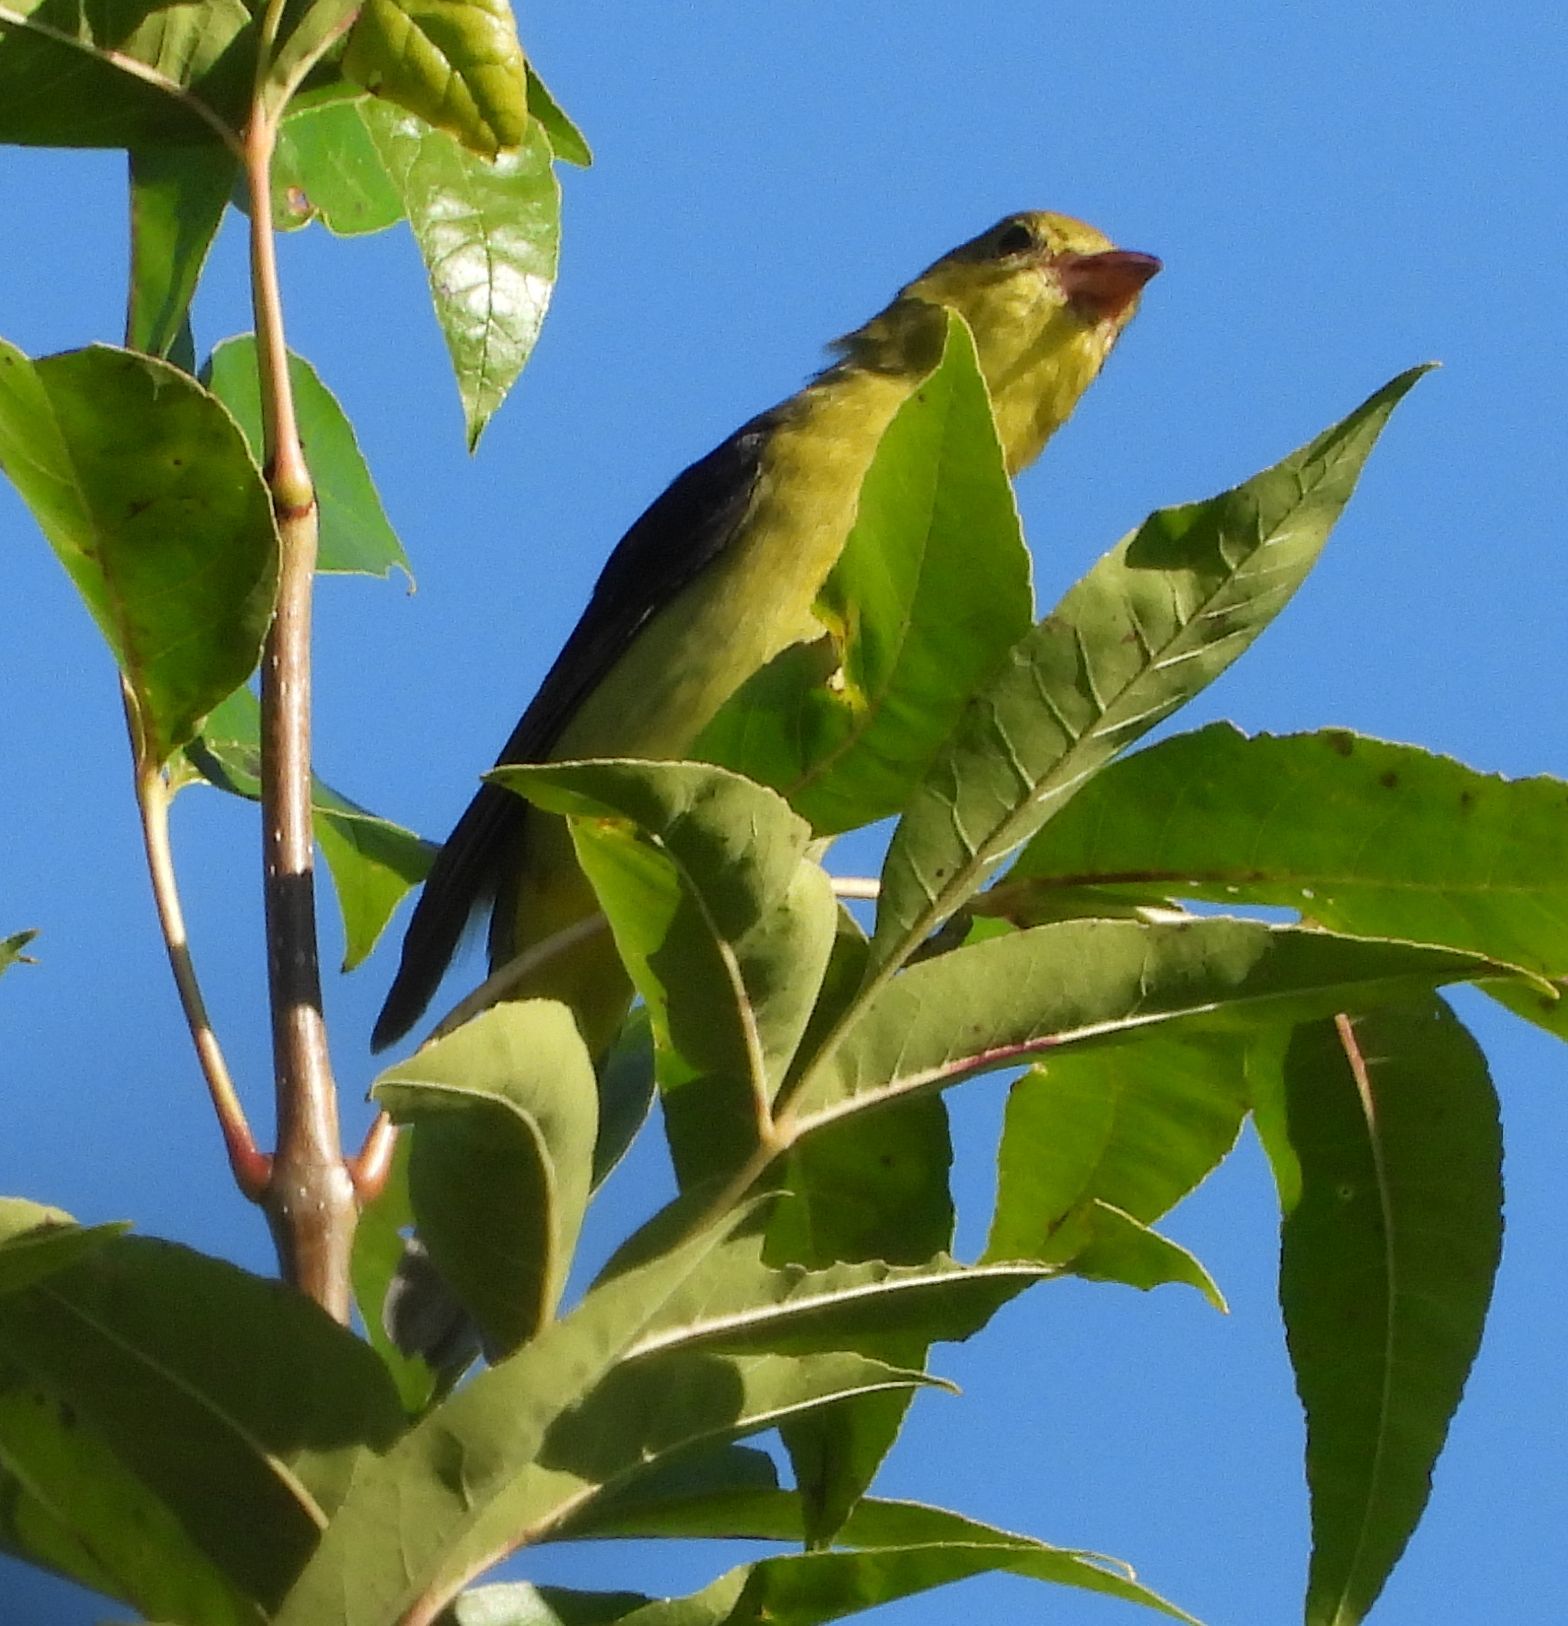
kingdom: Animalia
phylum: Chordata
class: Aves
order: Passeriformes
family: Cardinalidae
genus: Piranga
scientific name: Piranga olivacea
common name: Scarlet tanager
